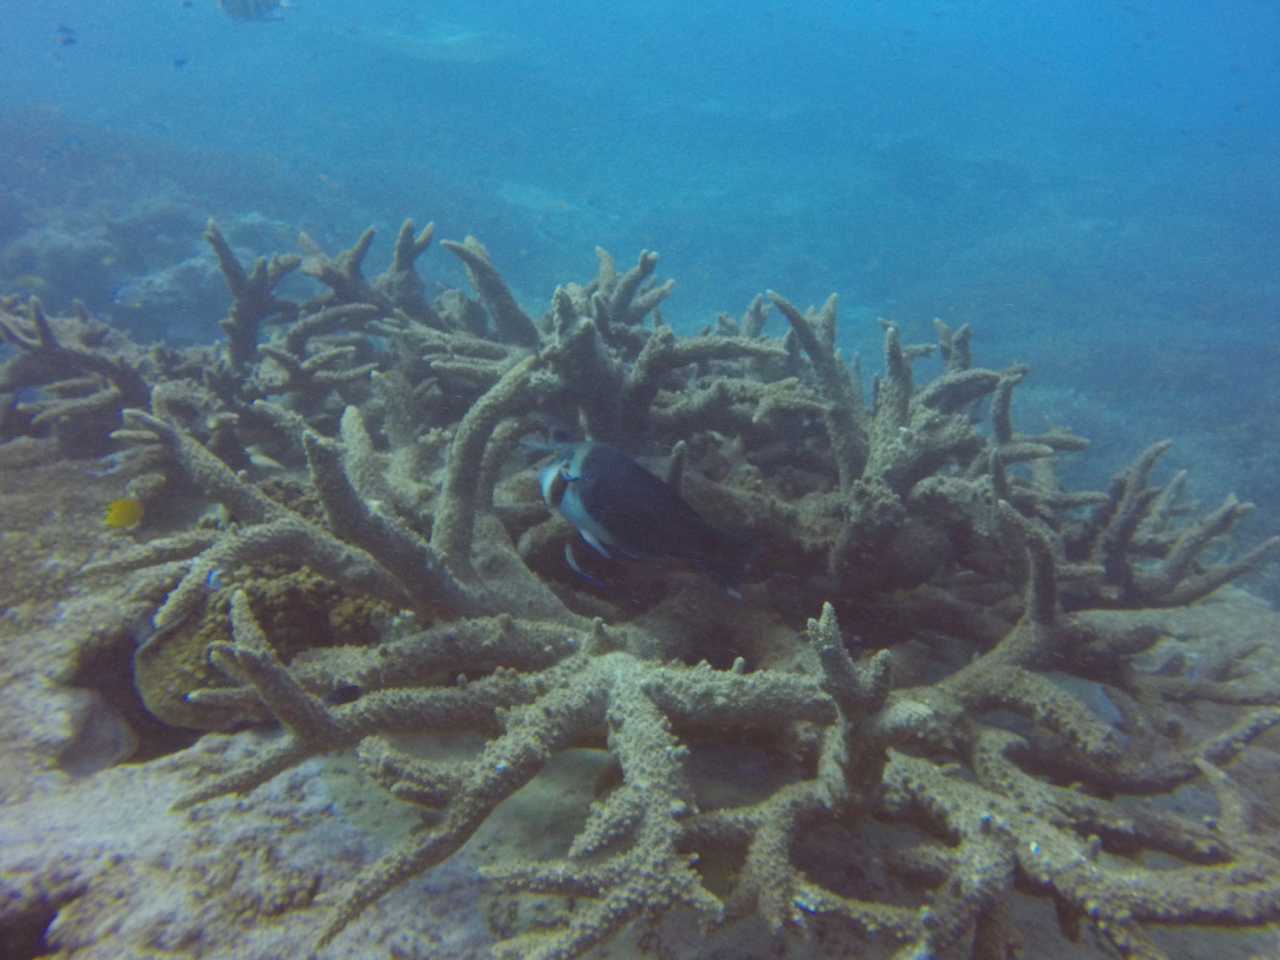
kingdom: Animalia
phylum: Chordata
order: Perciformes
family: Labridae
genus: Hemigymnus
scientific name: Hemigymnus melapterus
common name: Blackeye thicklip
